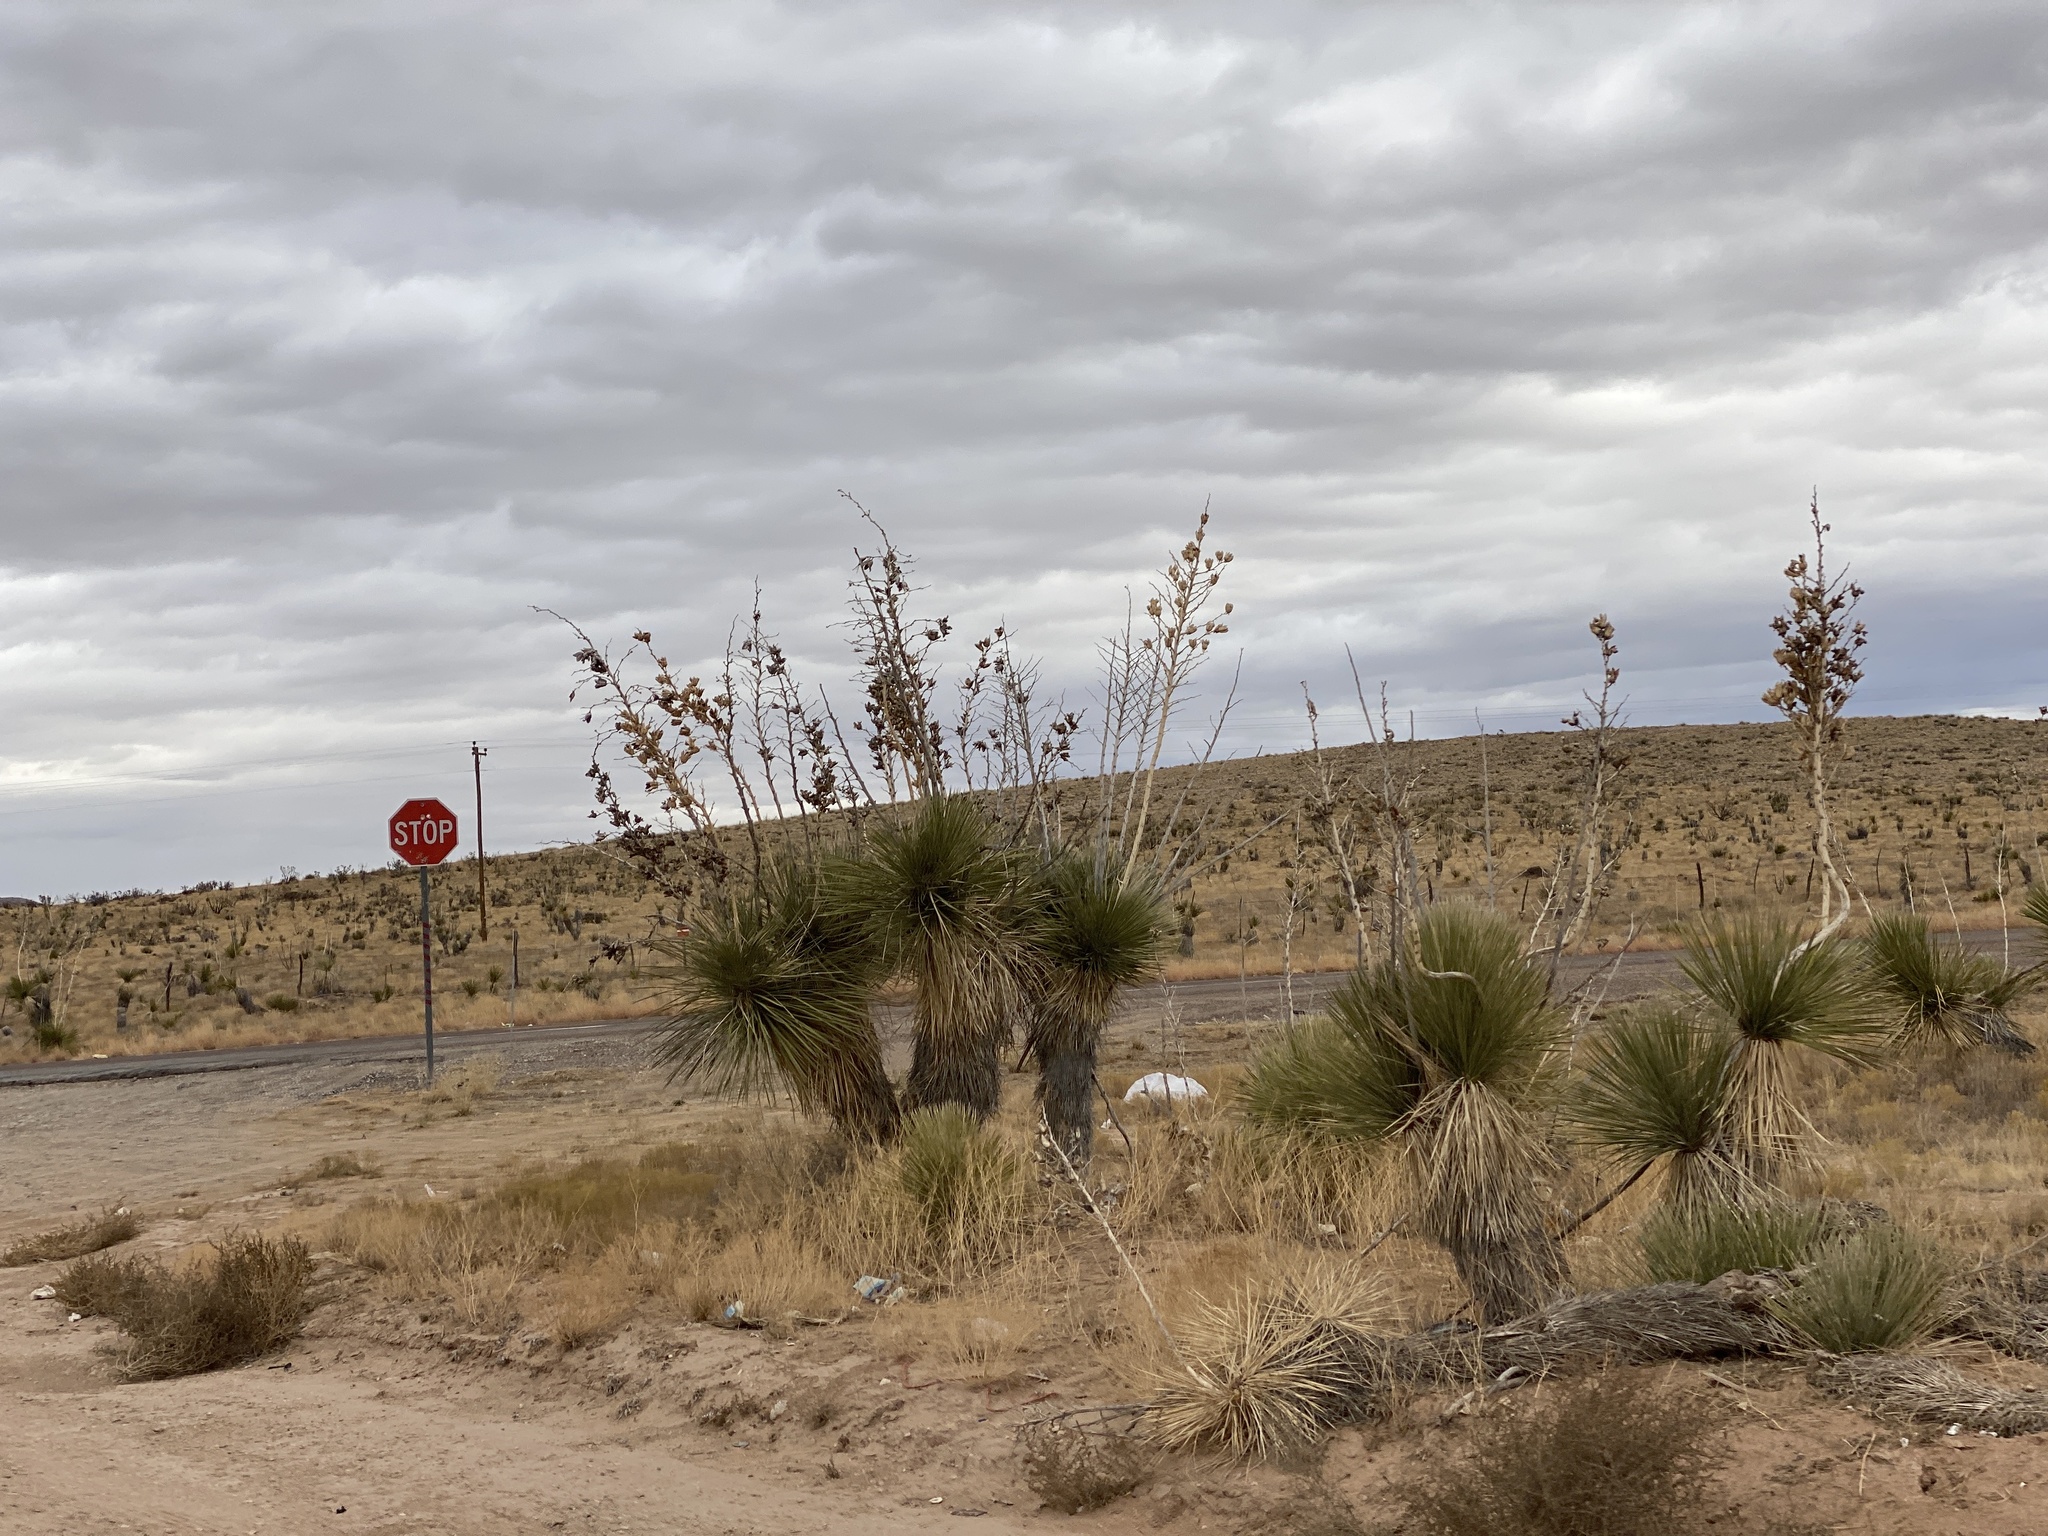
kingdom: Plantae
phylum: Tracheophyta
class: Liliopsida
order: Asparagales
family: Asparagaceae
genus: Yucca
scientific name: Yucca elata
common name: Palmella
